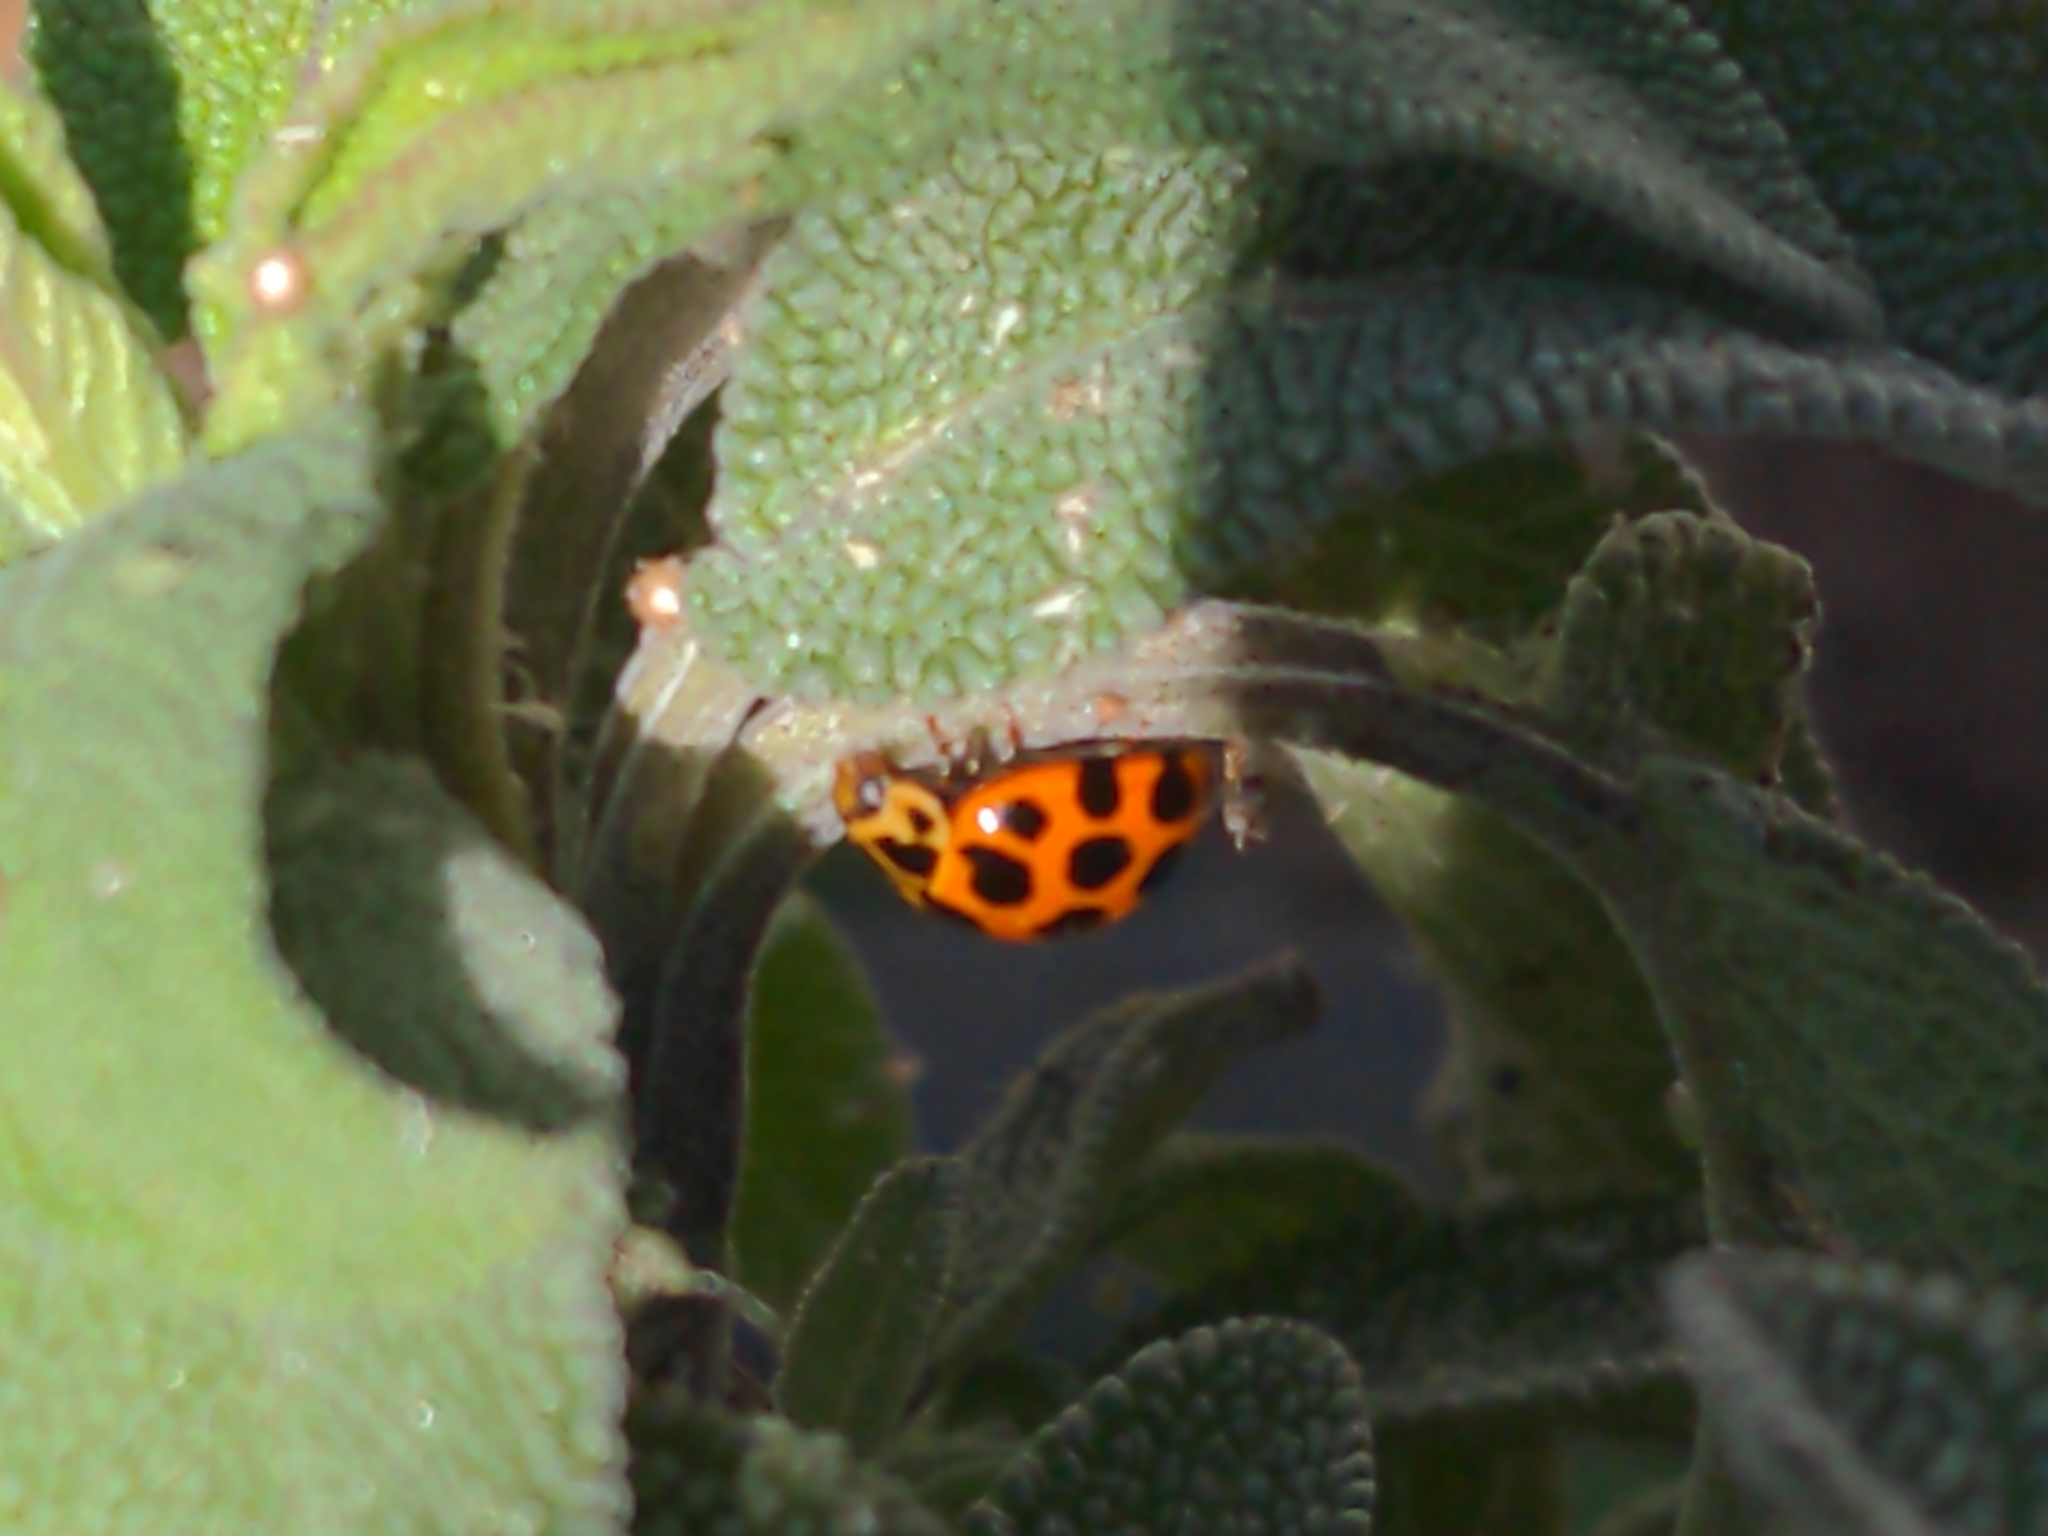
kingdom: Animalia
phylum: Arthropoda
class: Insecta
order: Coleoptera
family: Coccinellidae
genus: Harmonia
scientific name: Harmonia conformis
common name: Common spotted ladybird beetle
